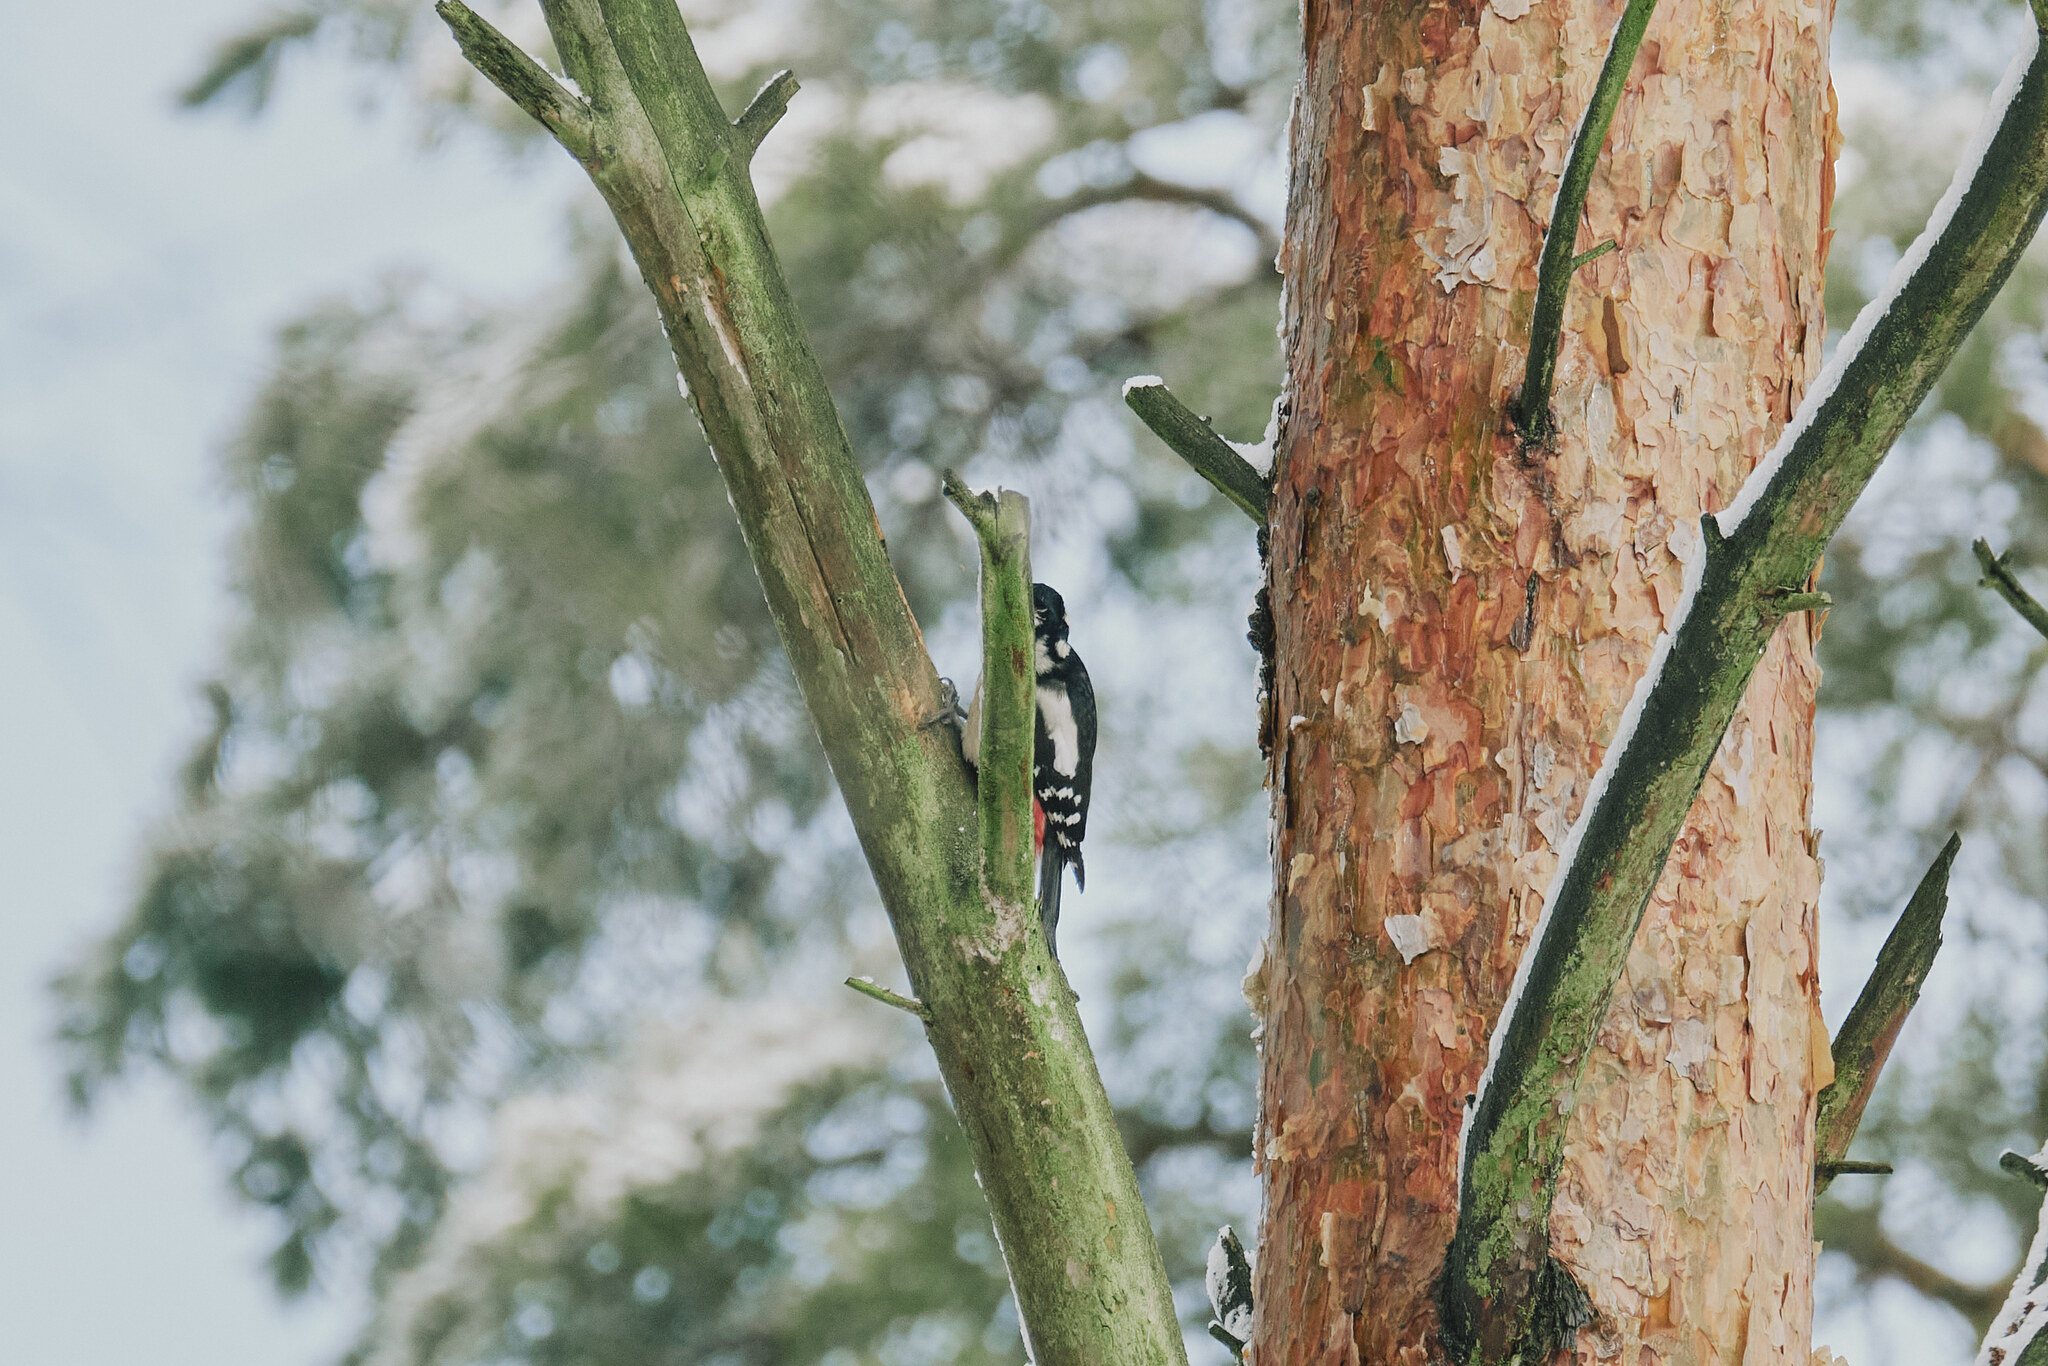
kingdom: Animalia
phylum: Chordata
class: Aves
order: Piciformes
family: Picidae
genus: Dendrocopos
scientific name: Dendrocopos major
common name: Great spotted woodpecker
